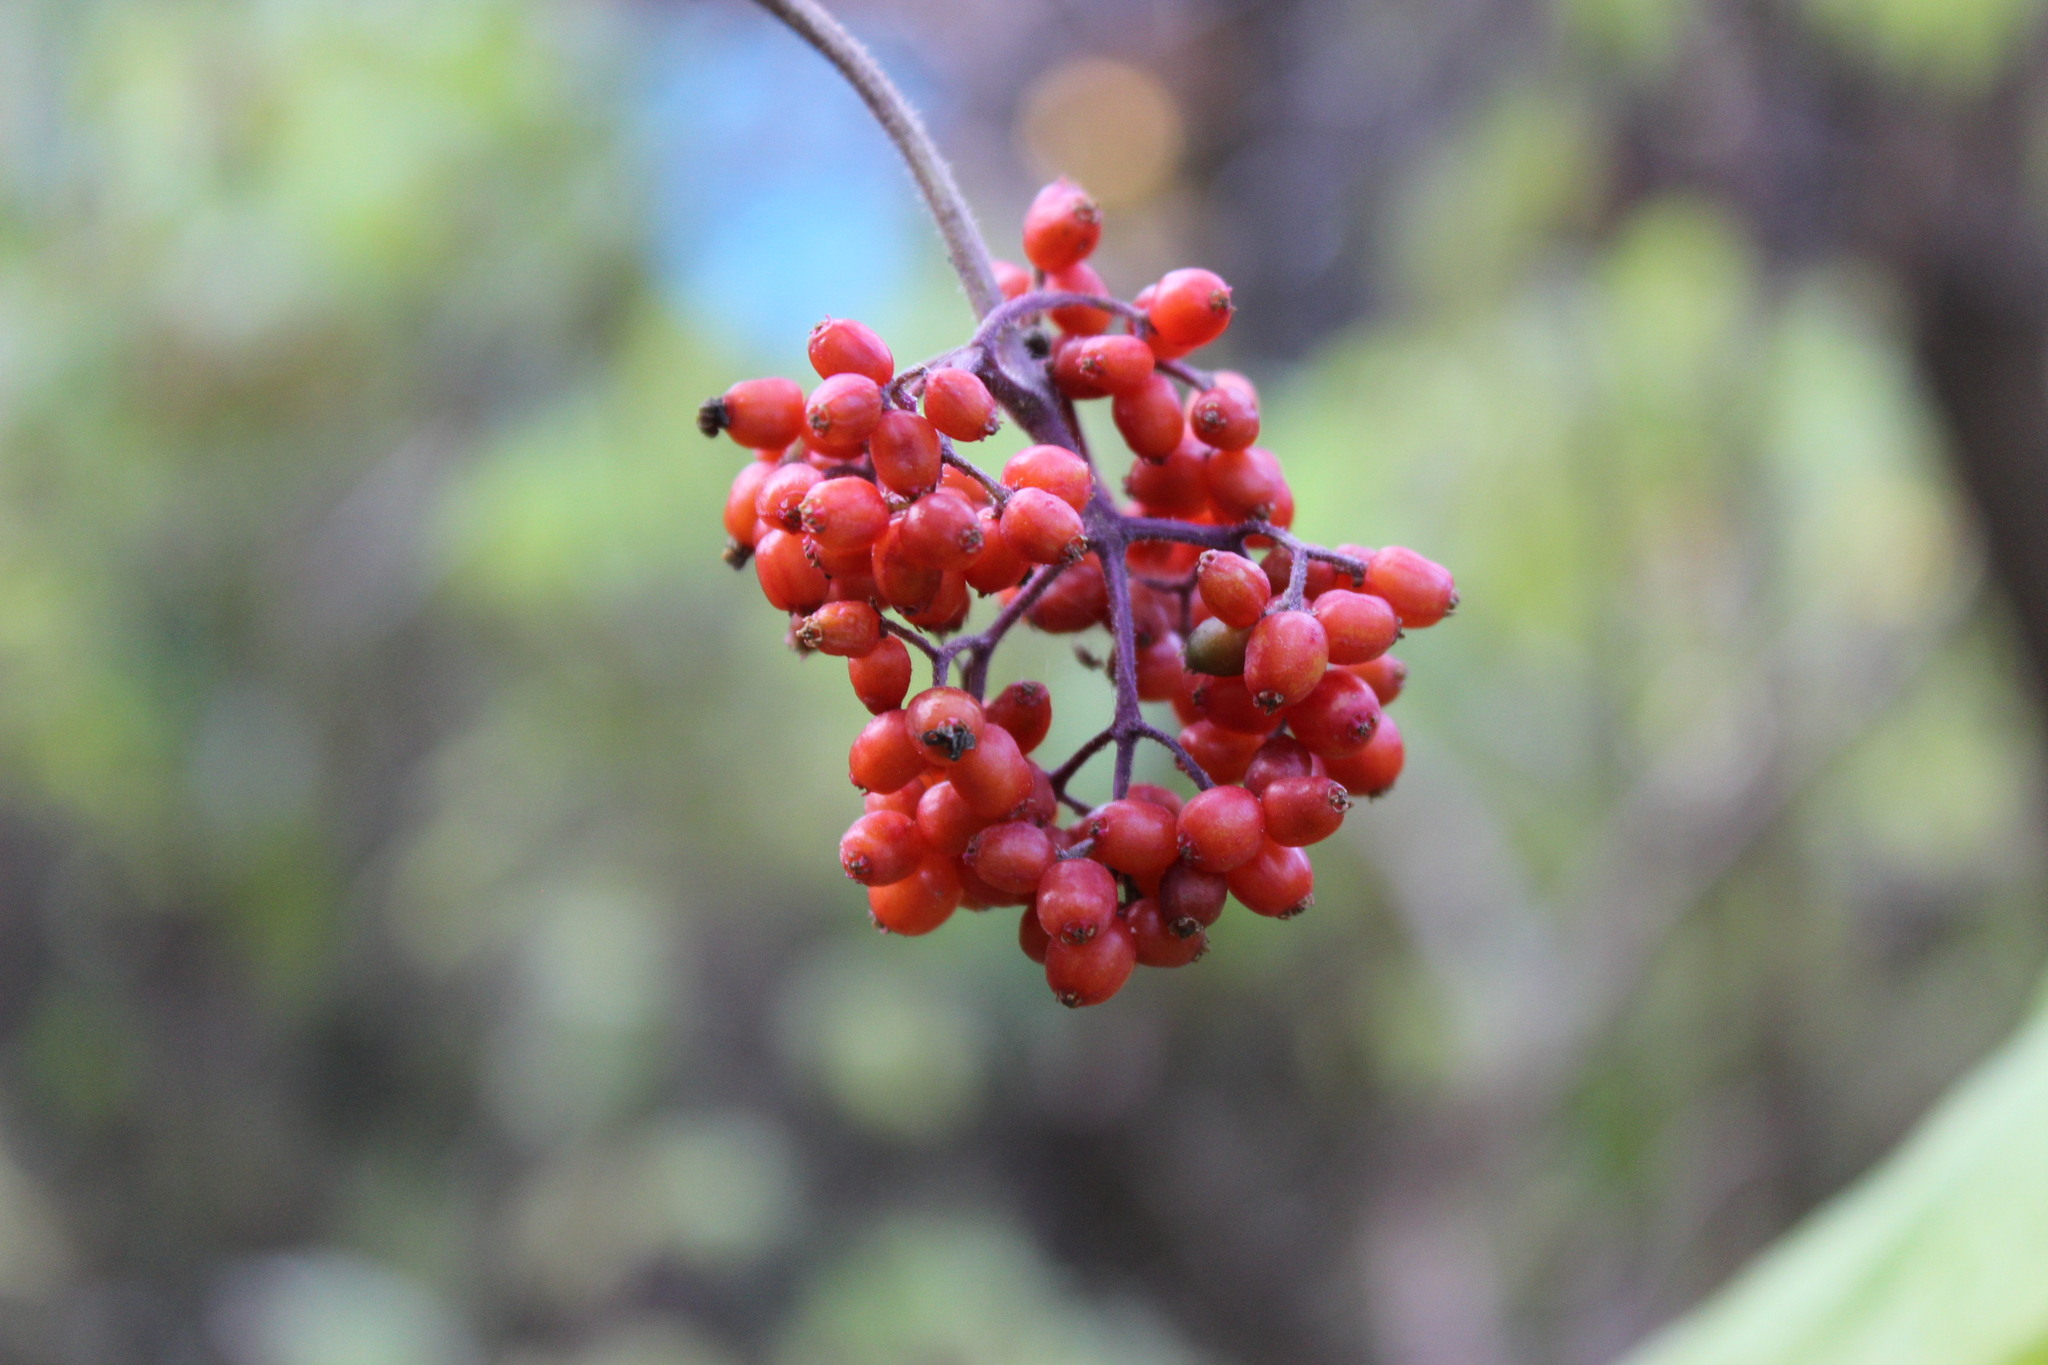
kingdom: Plantae
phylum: Tracheophyta
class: Magnoliopsida
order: Dipsacales
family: Viburnaceae
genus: Sambucus
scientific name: Sambucus sibirica
